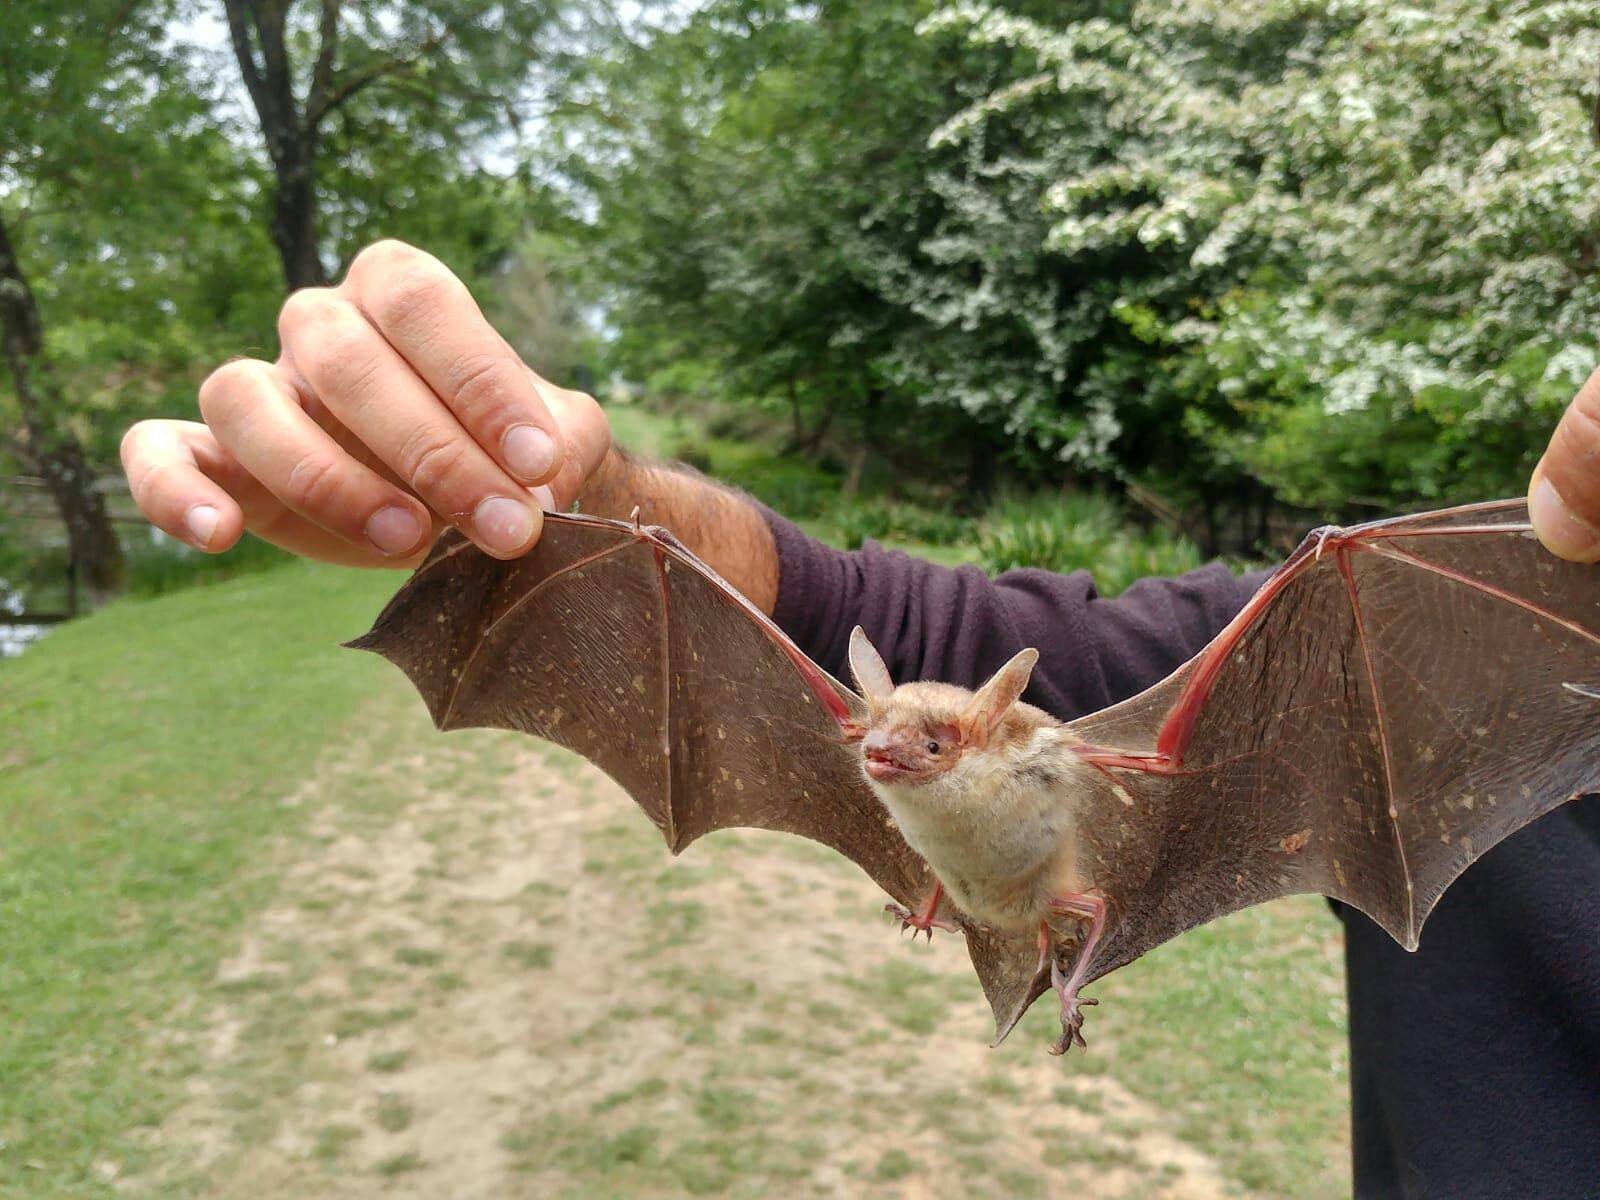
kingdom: Animalia
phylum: Chordata
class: Mammalia
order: Chiroptera
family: Vespertilionidae
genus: Myotis
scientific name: Myotis myotis
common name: Greater mouse-eared bat
